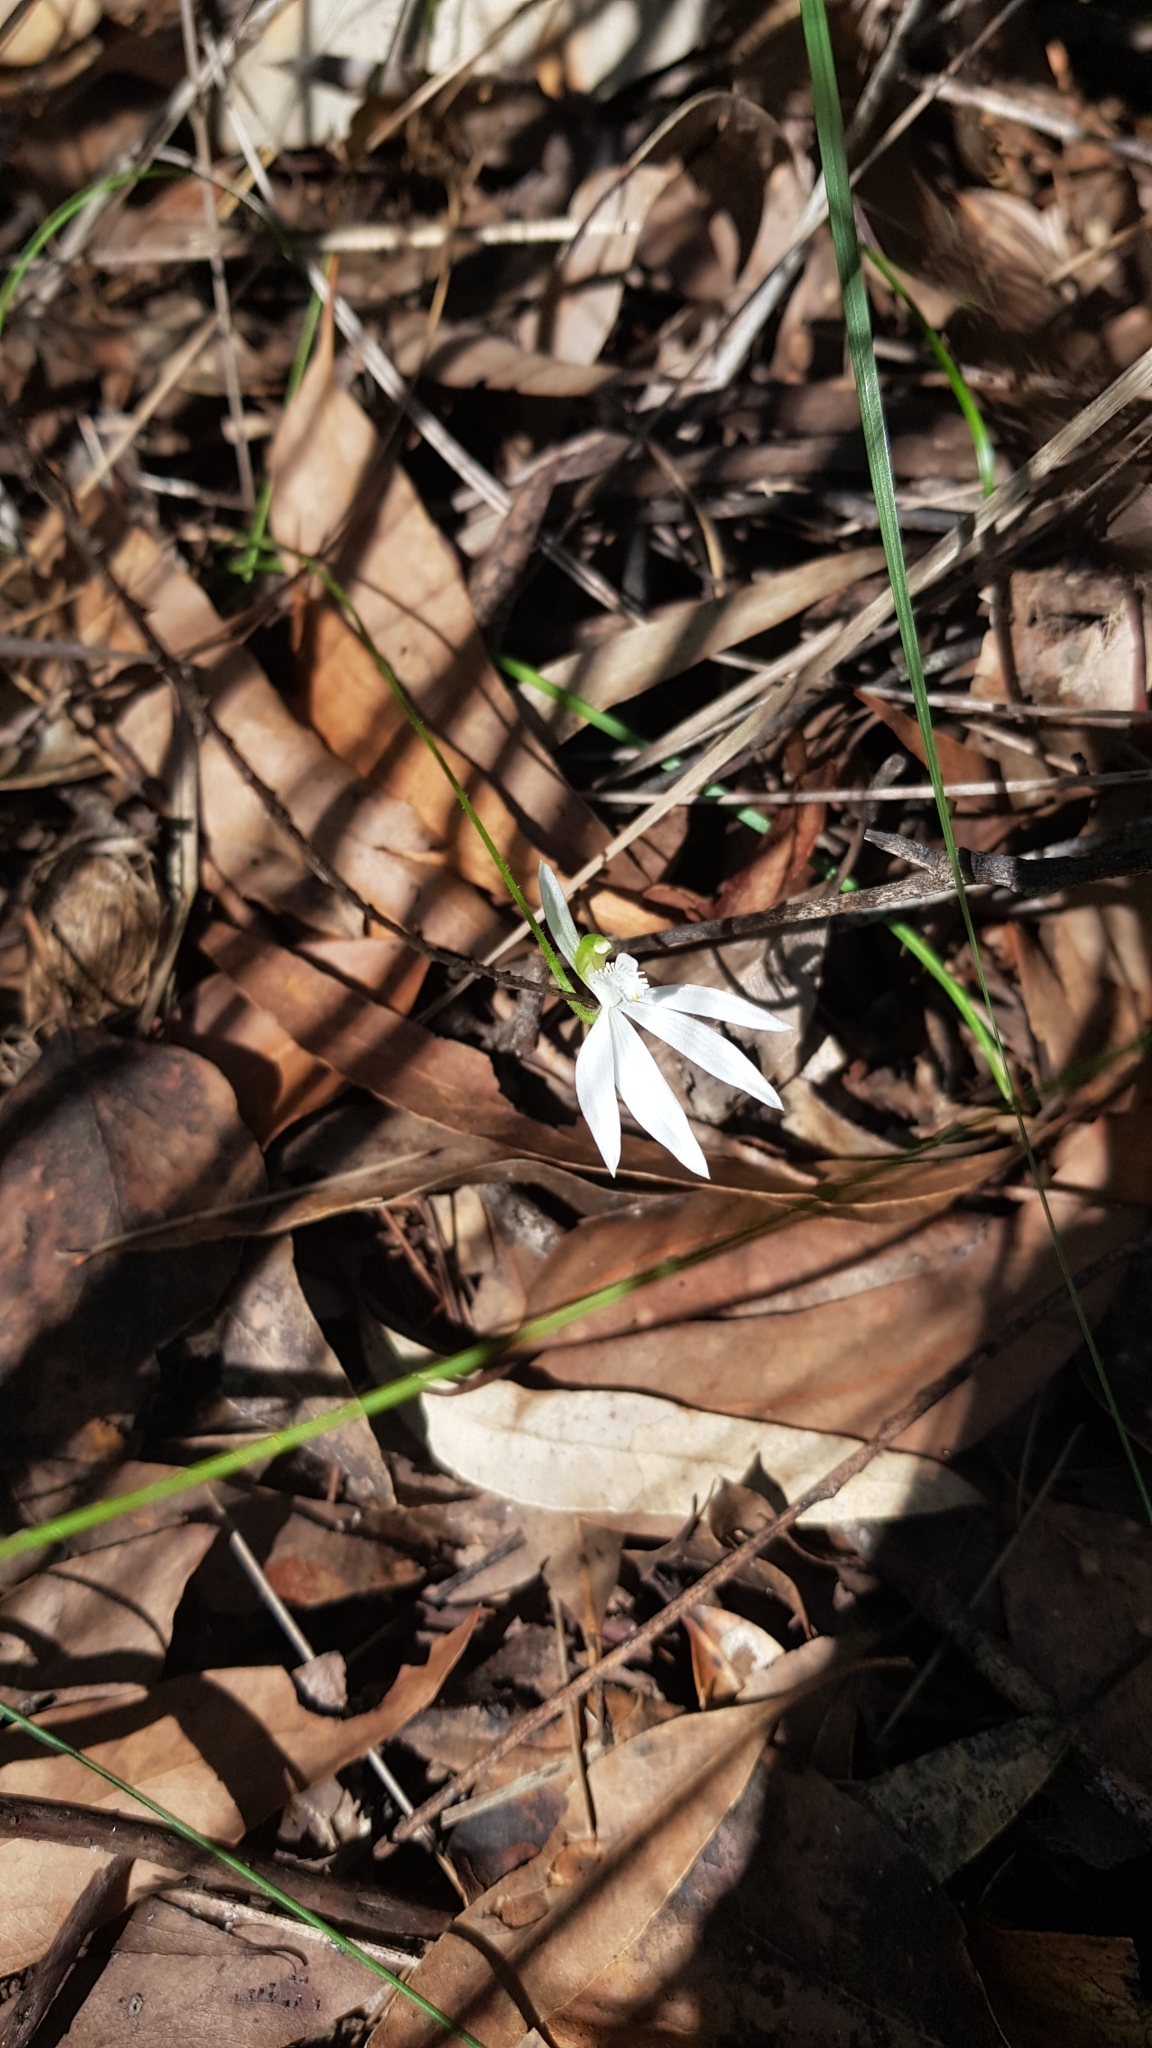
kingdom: Plantae
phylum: Tracheophyta
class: Liliopsida
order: Asparagales
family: Orchidaceae
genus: Caladenia
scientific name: Caladenia catenata
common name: White caladenia
